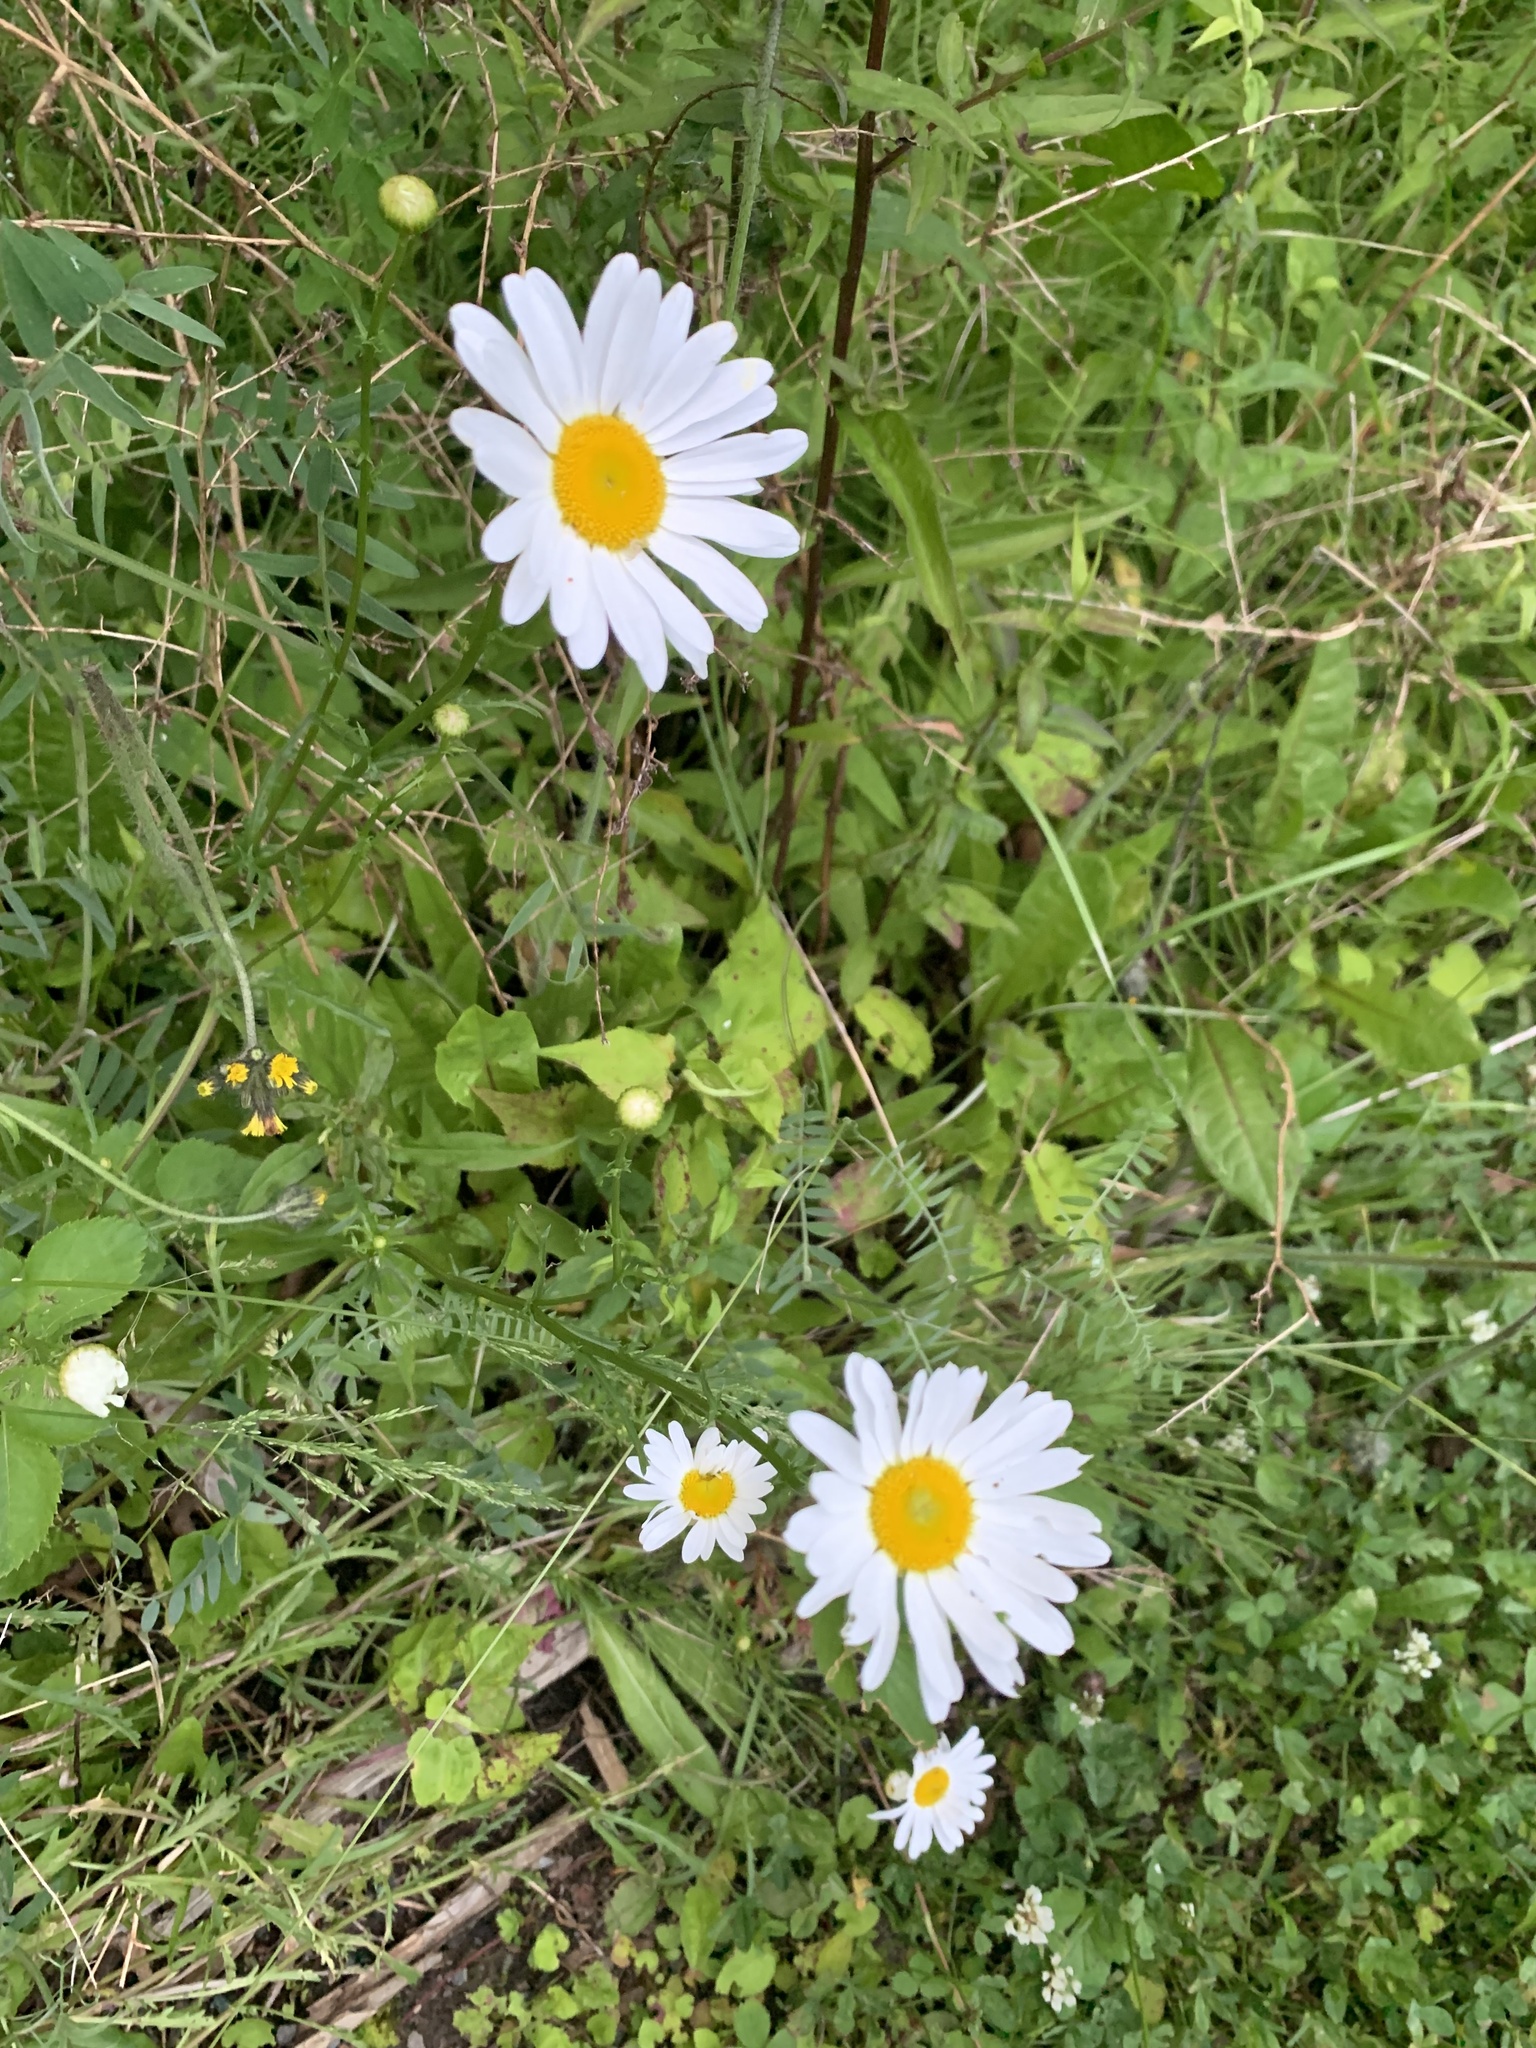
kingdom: Plantae
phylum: Tracheophyta
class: Magnoliopsida
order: Asterales
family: Asteraceae
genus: Leucanthemum
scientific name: Leucanthemum vulgare
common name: Oxeye daisy
